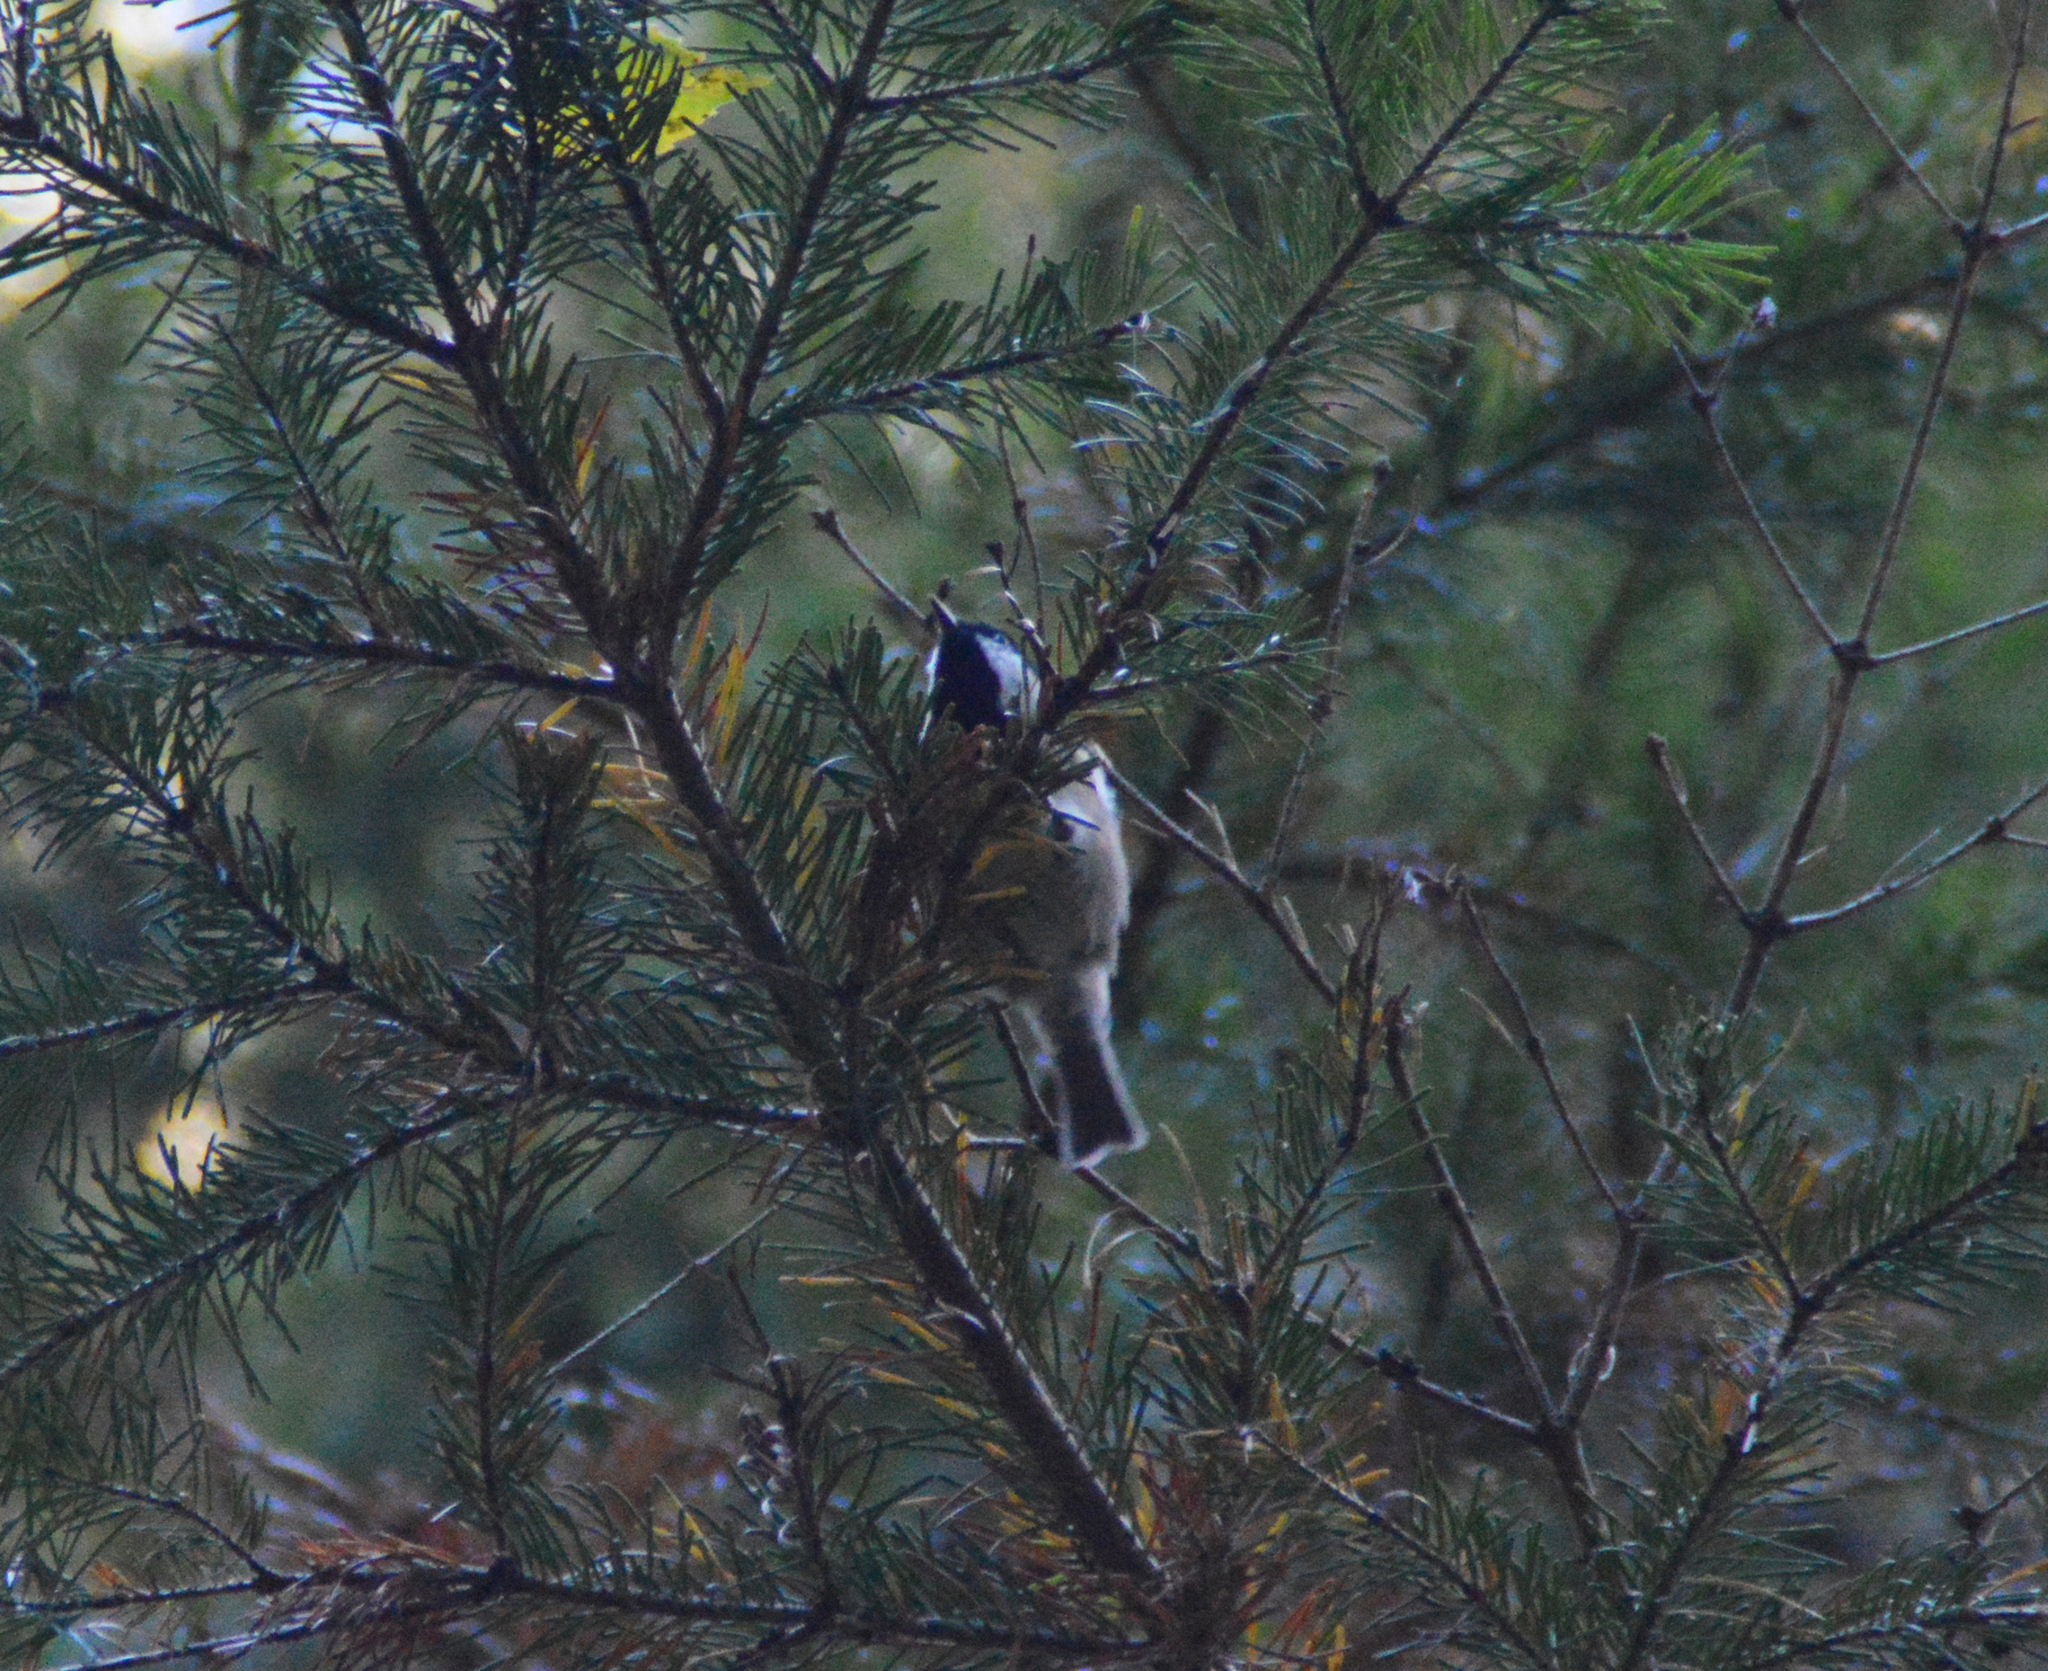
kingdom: Animalia
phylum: Chordata
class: Aves
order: Passeriformes
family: Paridae
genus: Periparus
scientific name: Periparus ater
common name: Coal tit
